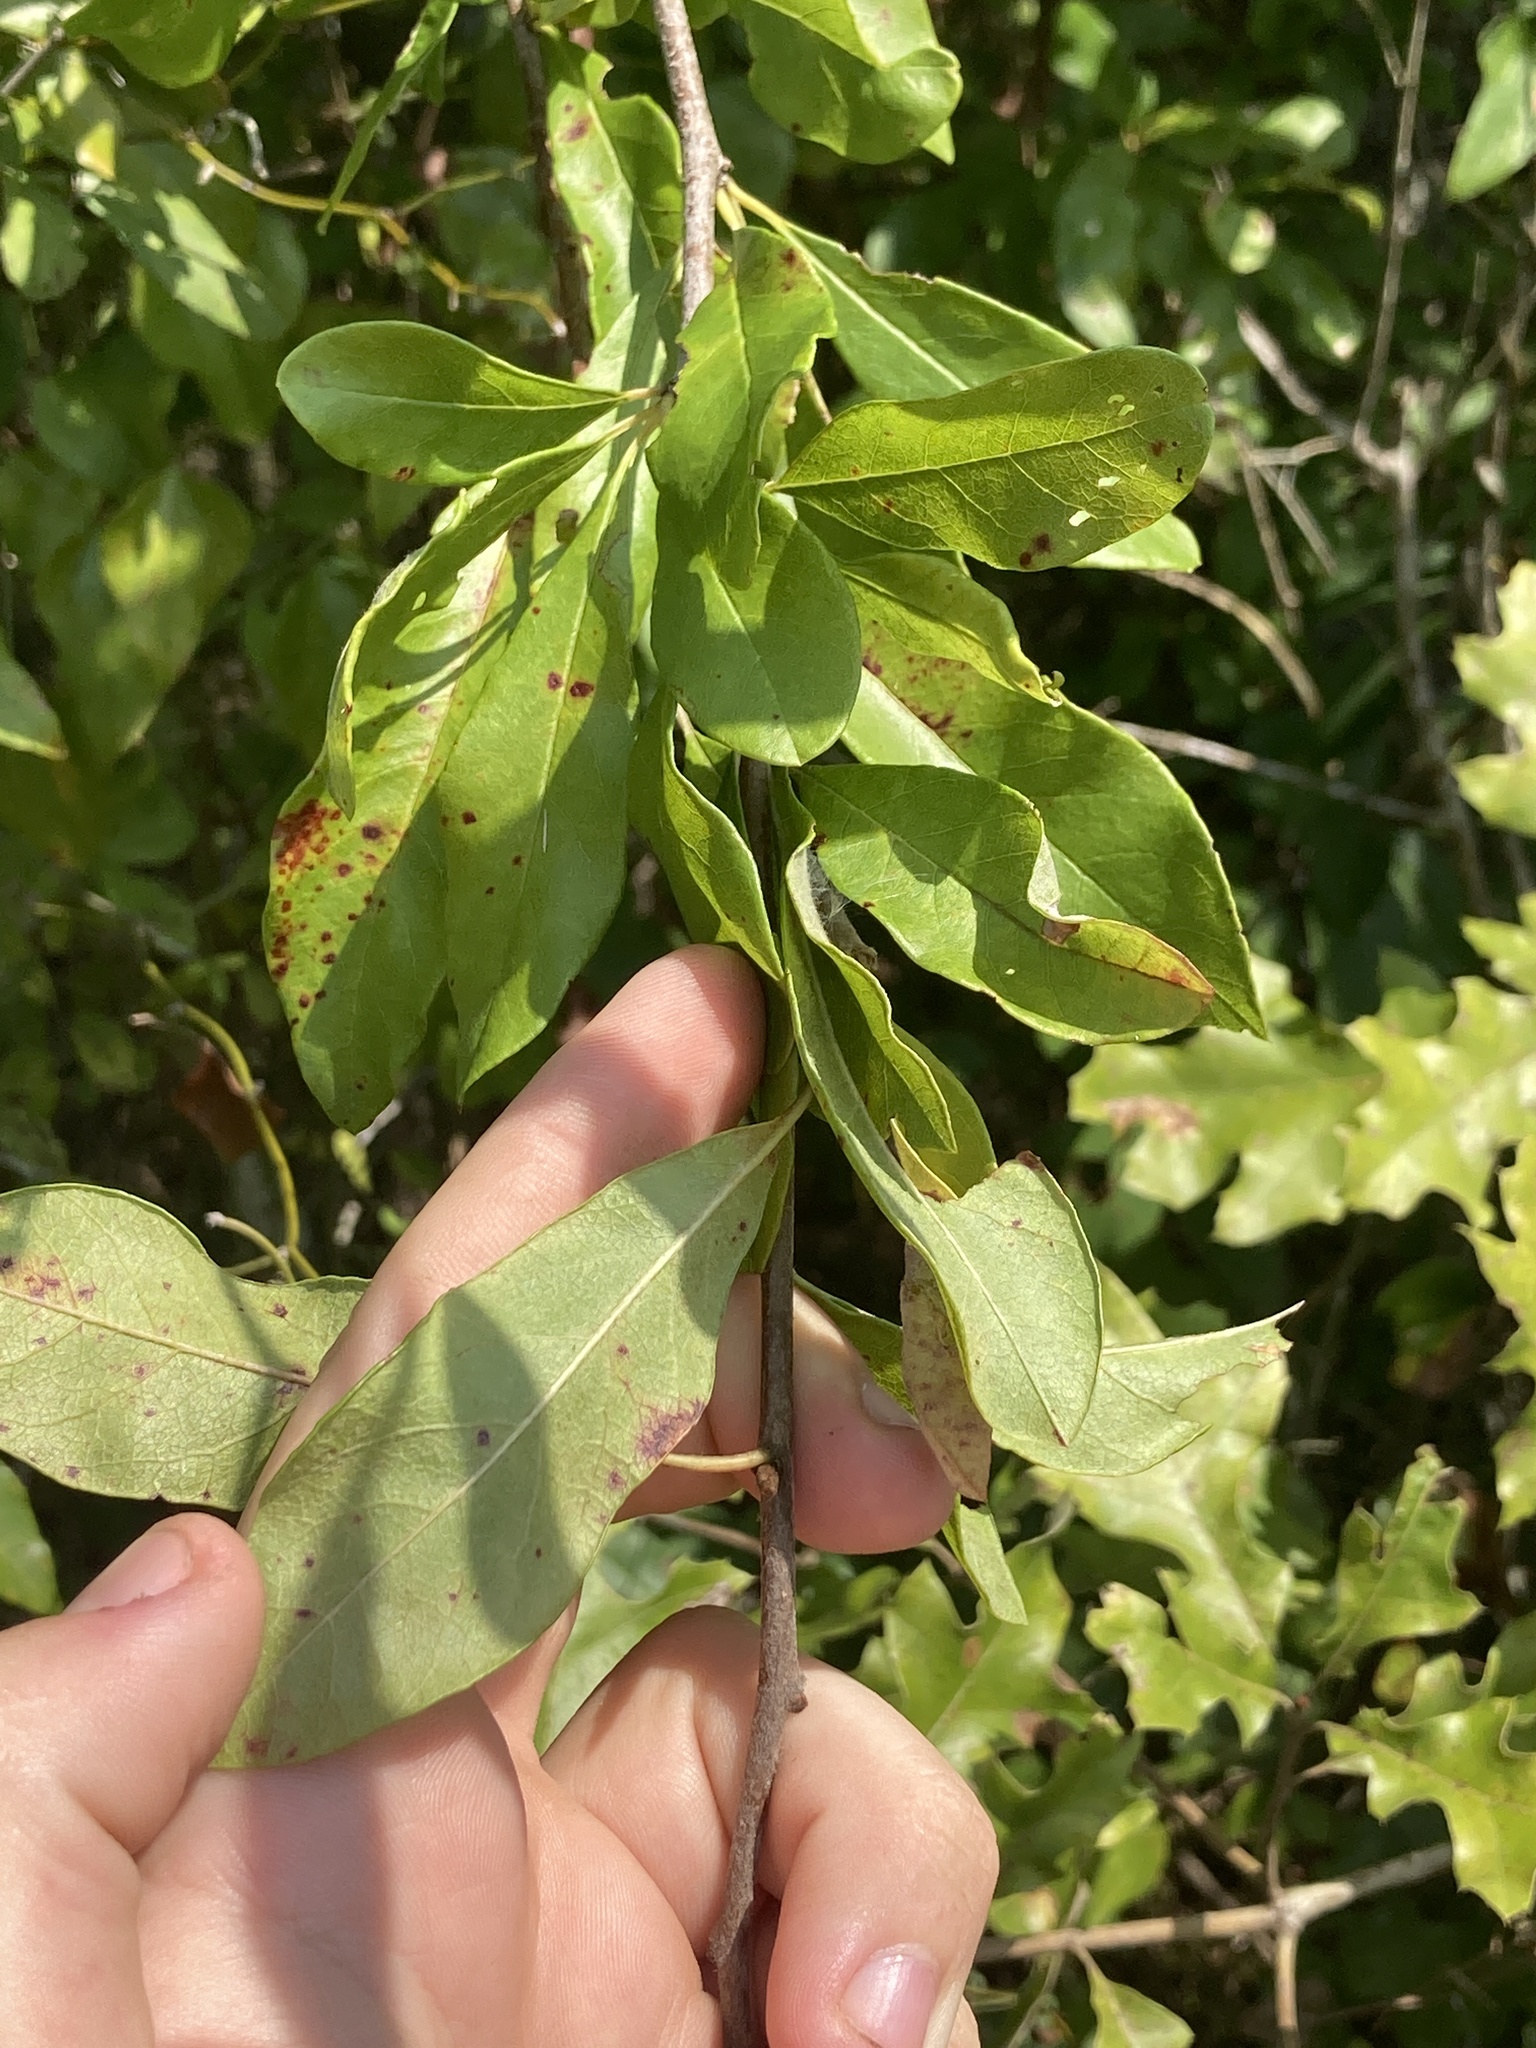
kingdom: Plantae
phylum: Tracheophyta
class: Magnoliopsida
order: Ericales
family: Sapotaceae
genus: Sideroxylon
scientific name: Sideroxylon lanuginosum
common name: Chittamwood
